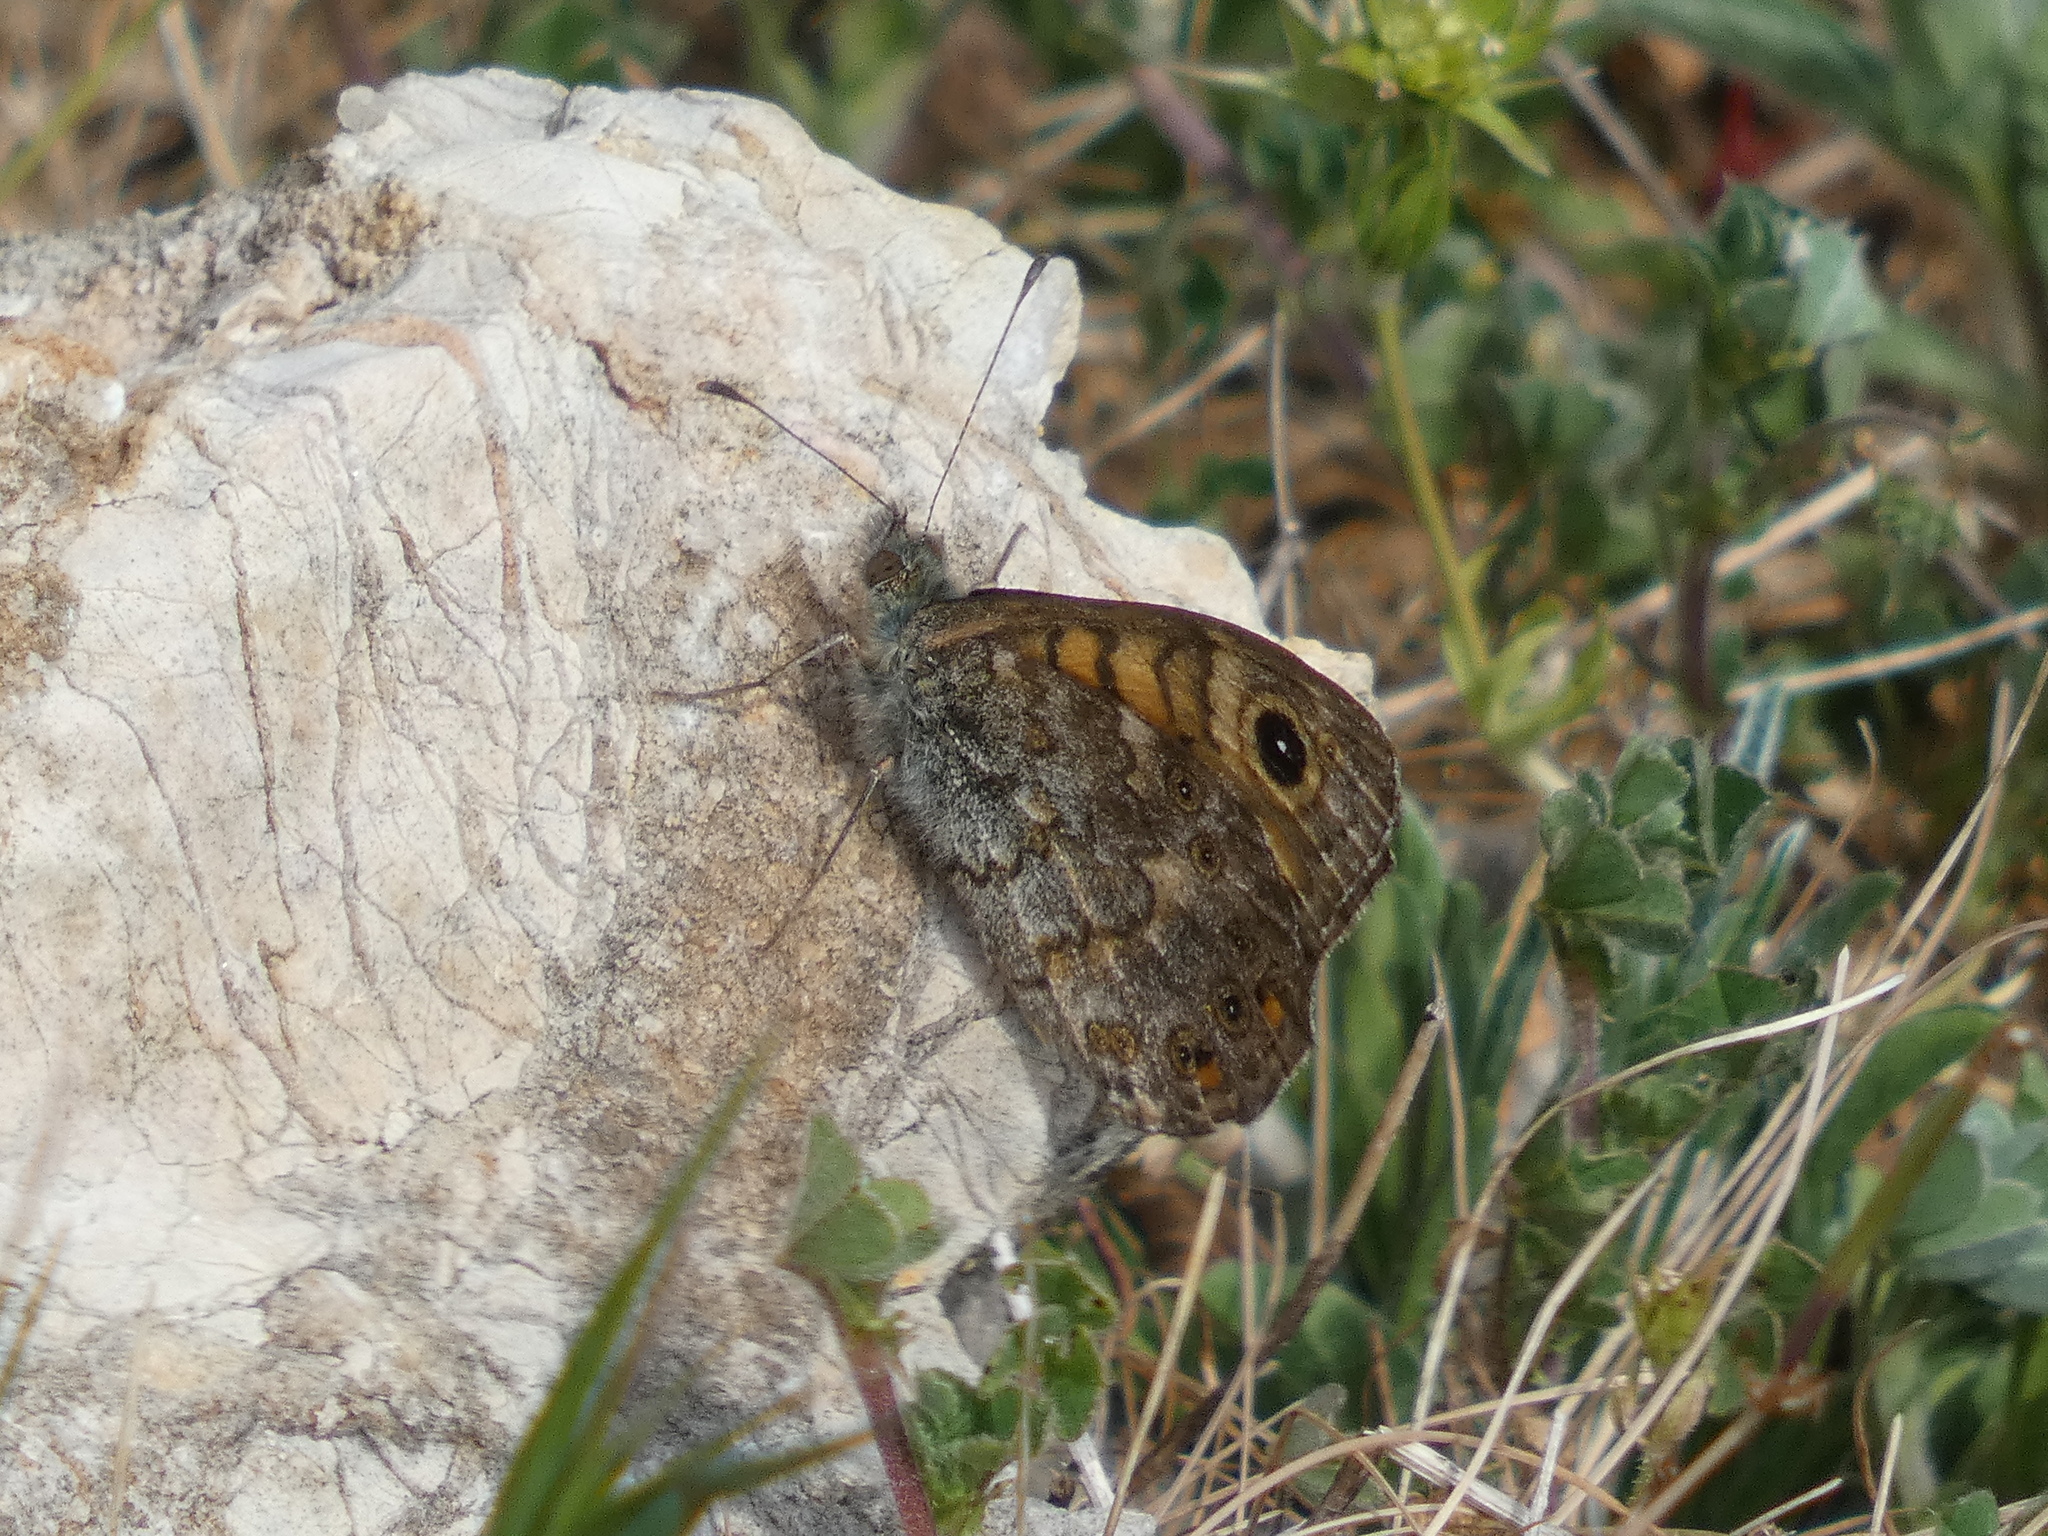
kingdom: Animalia
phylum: Arthropoda
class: Insecta
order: Lepidoptera
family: Nymphalidae
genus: Pararge
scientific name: Pararge Lasiommata megera
